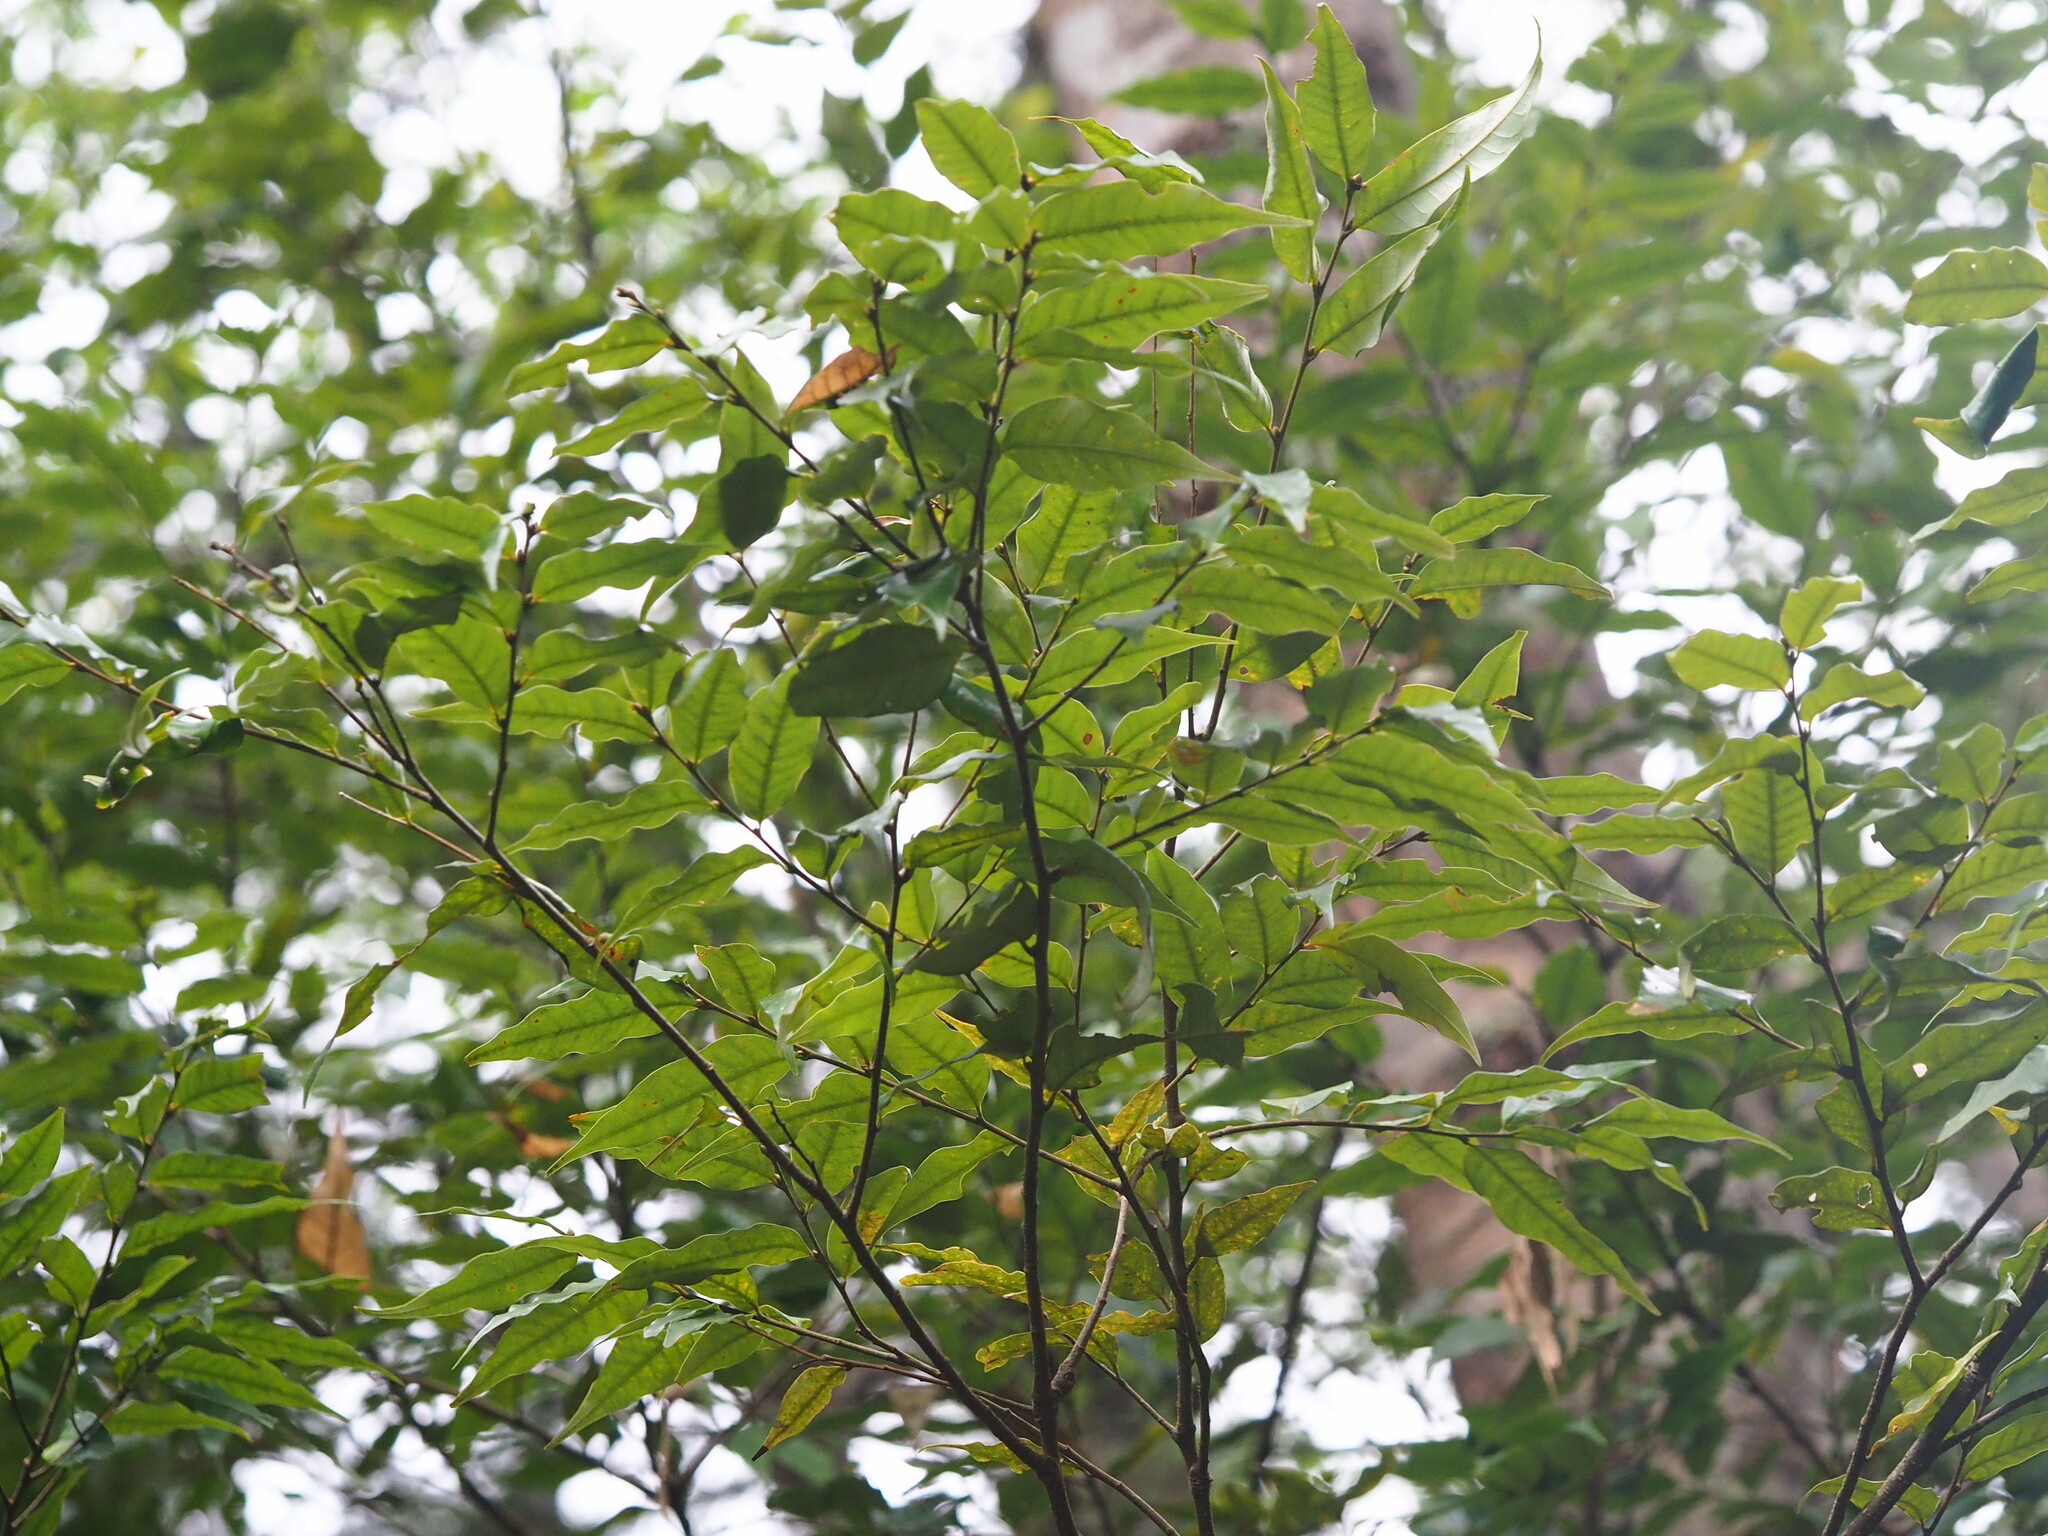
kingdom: Plantae
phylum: Tracheophyta
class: Magnoliopsida
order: Fagales
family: Fagaceae
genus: Castanopsis
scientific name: Castanopsis carlesii
